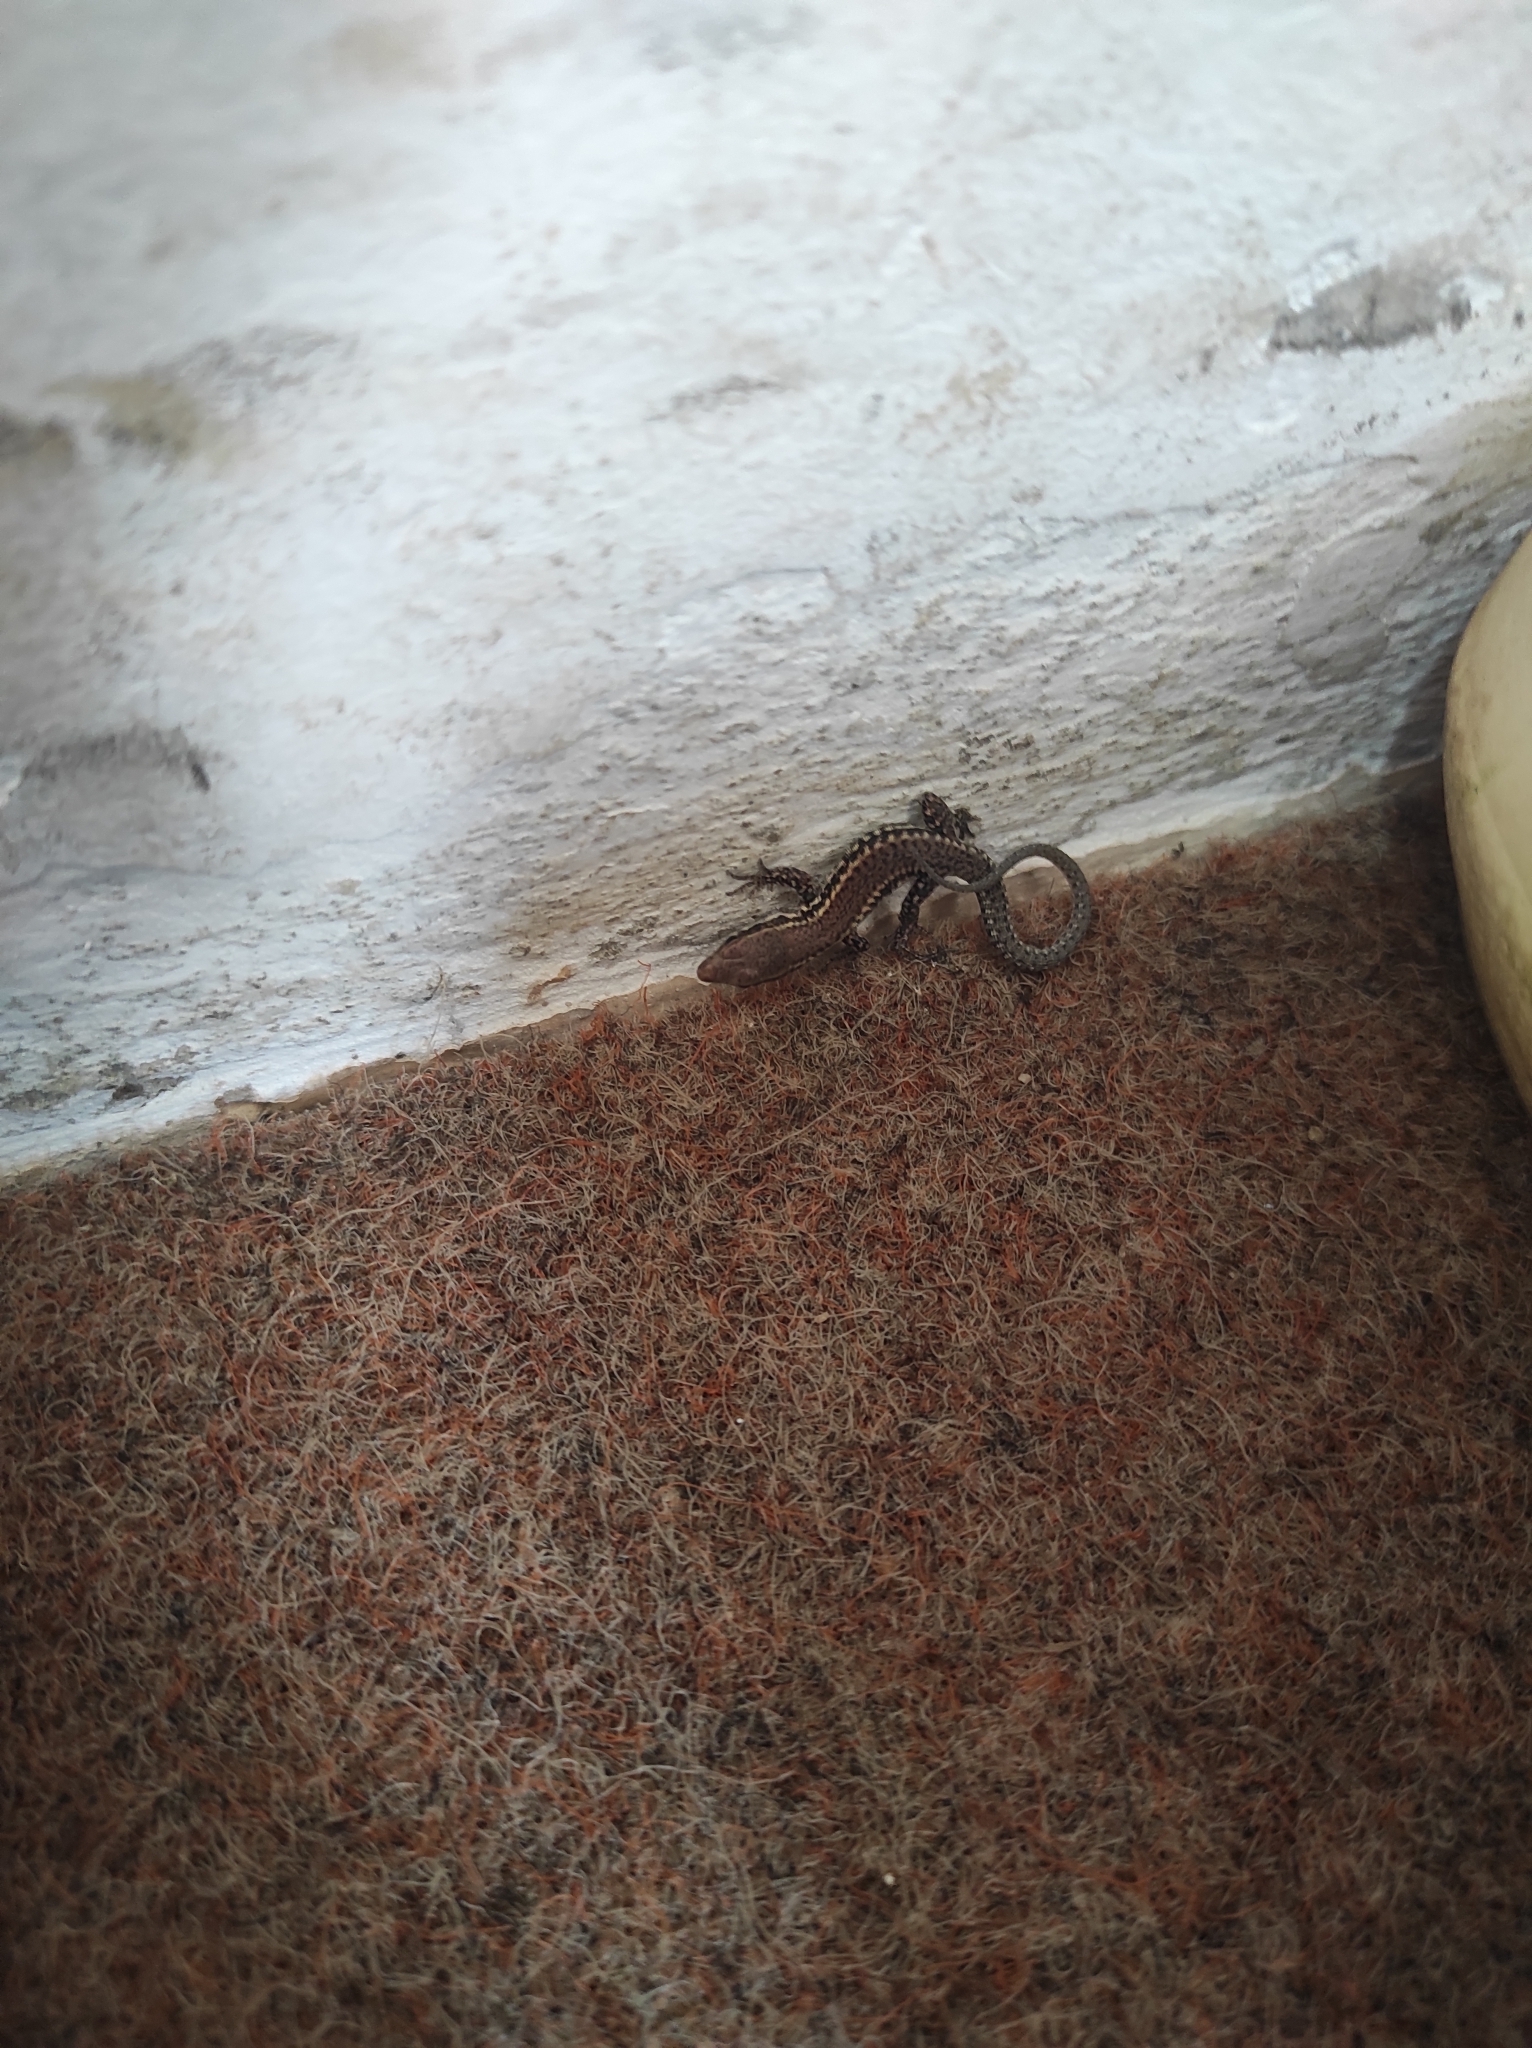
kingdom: Animalia
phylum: Chordata
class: Squamata
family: Lacertidae
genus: Podarcis
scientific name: Podarcis muralis
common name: Common wall lizard
